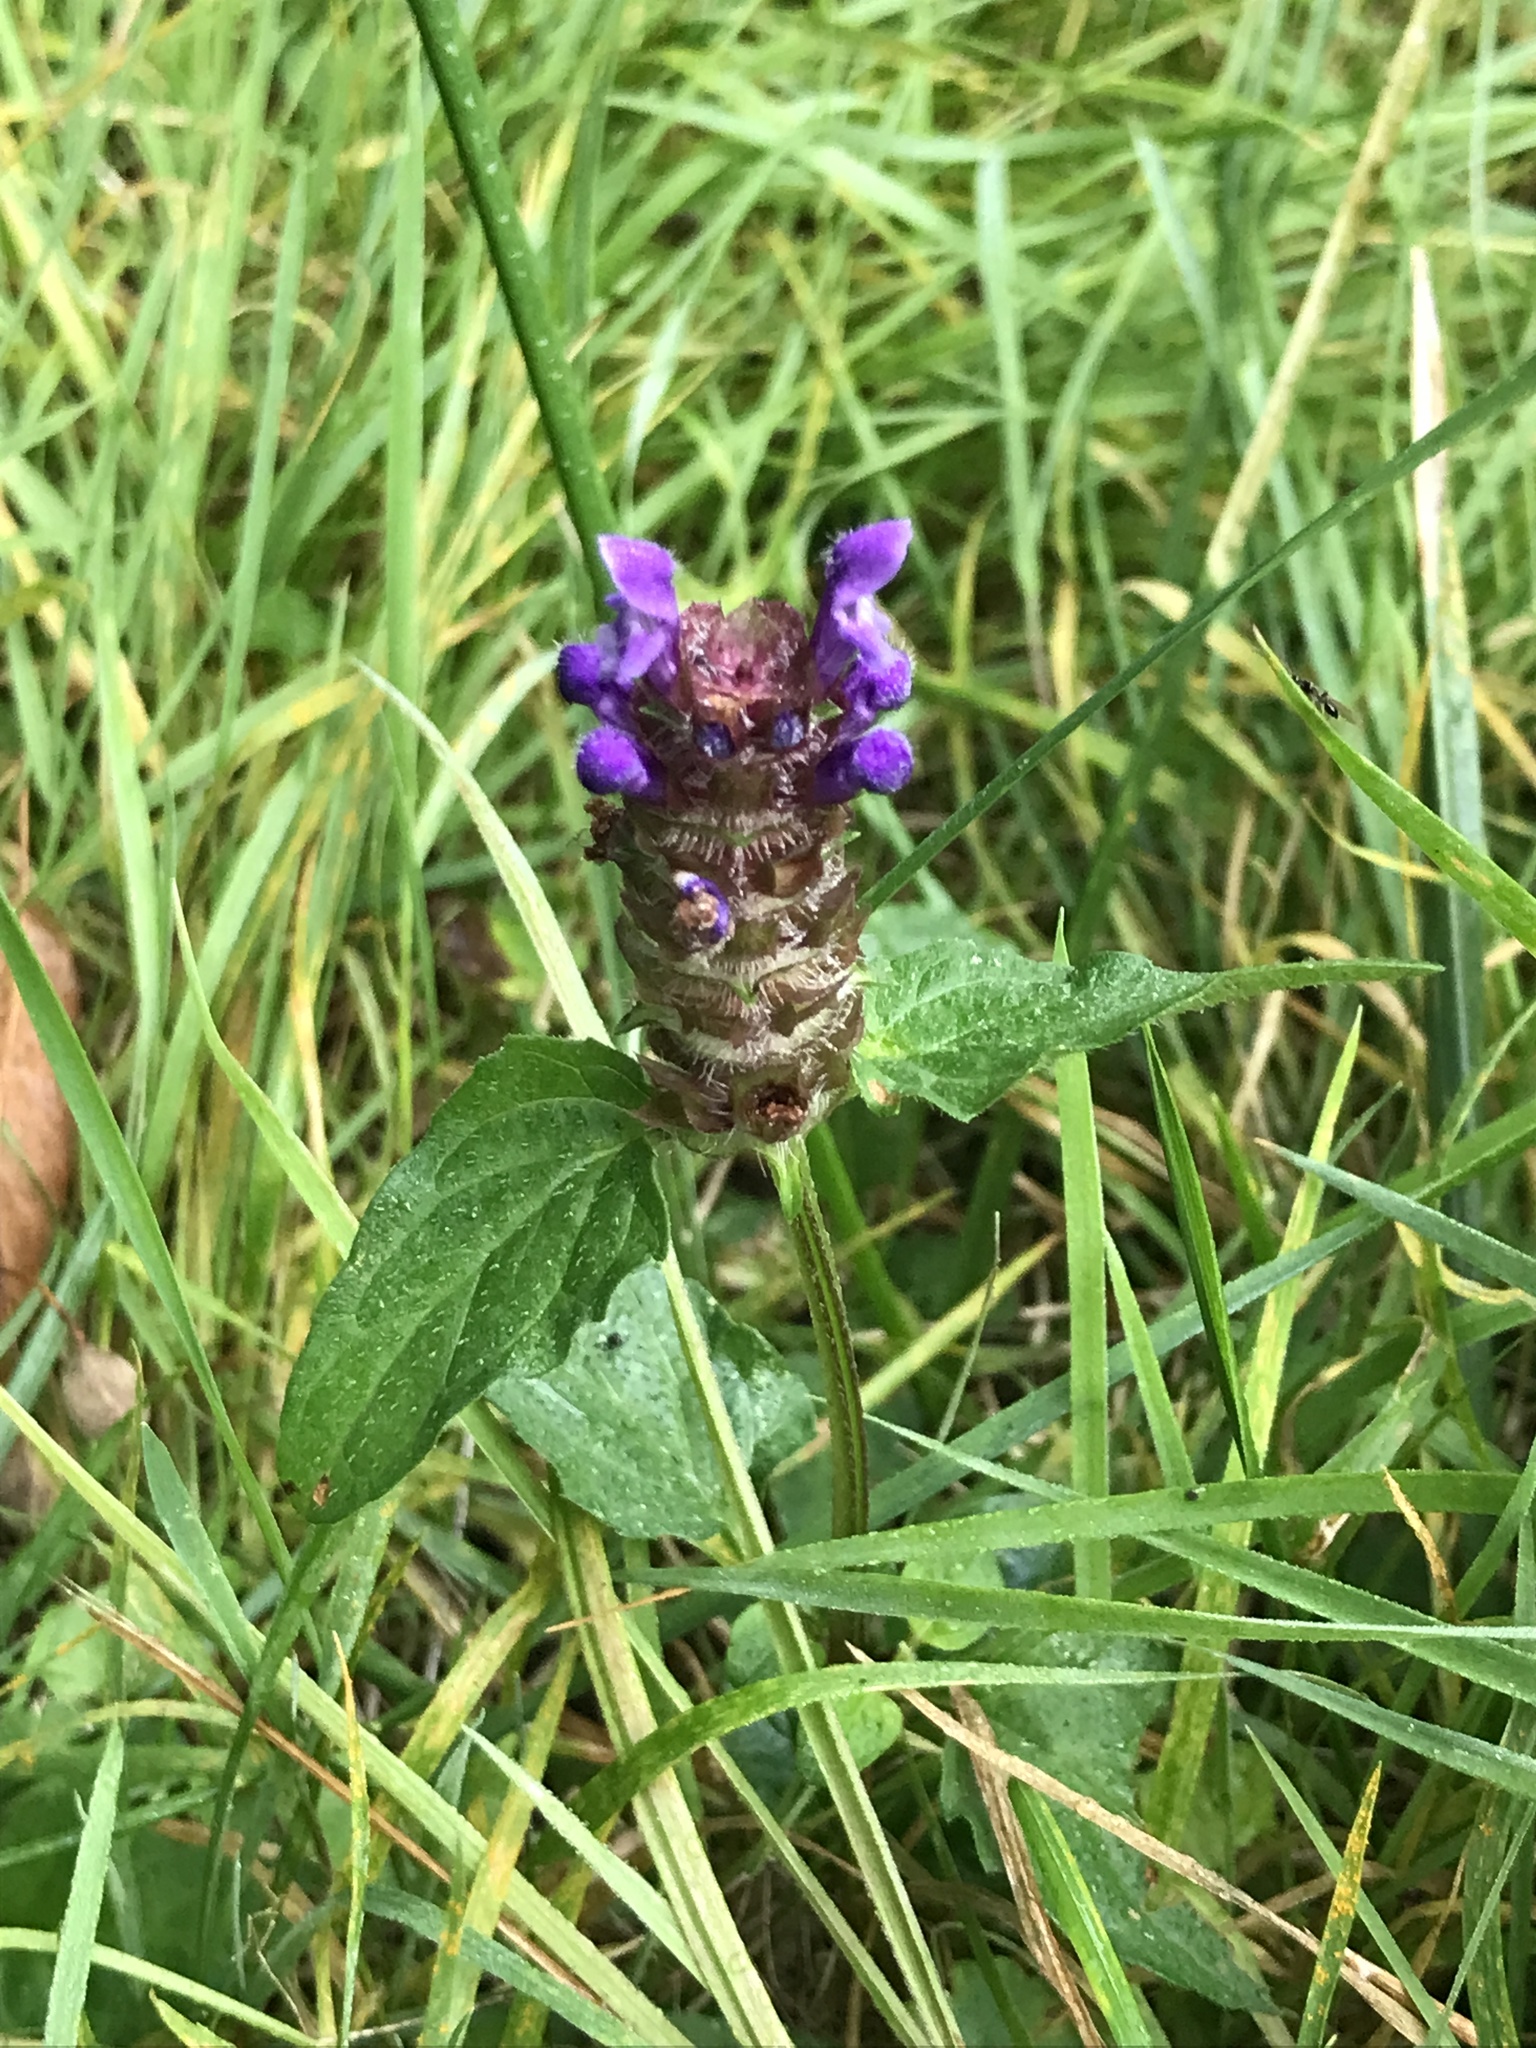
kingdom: Plantae
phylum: Tracheophyta
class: Magnoliopsida
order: Lamiales
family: Lamiaceae
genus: Prunella
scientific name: Prunella vulgaris
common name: Heal-all
